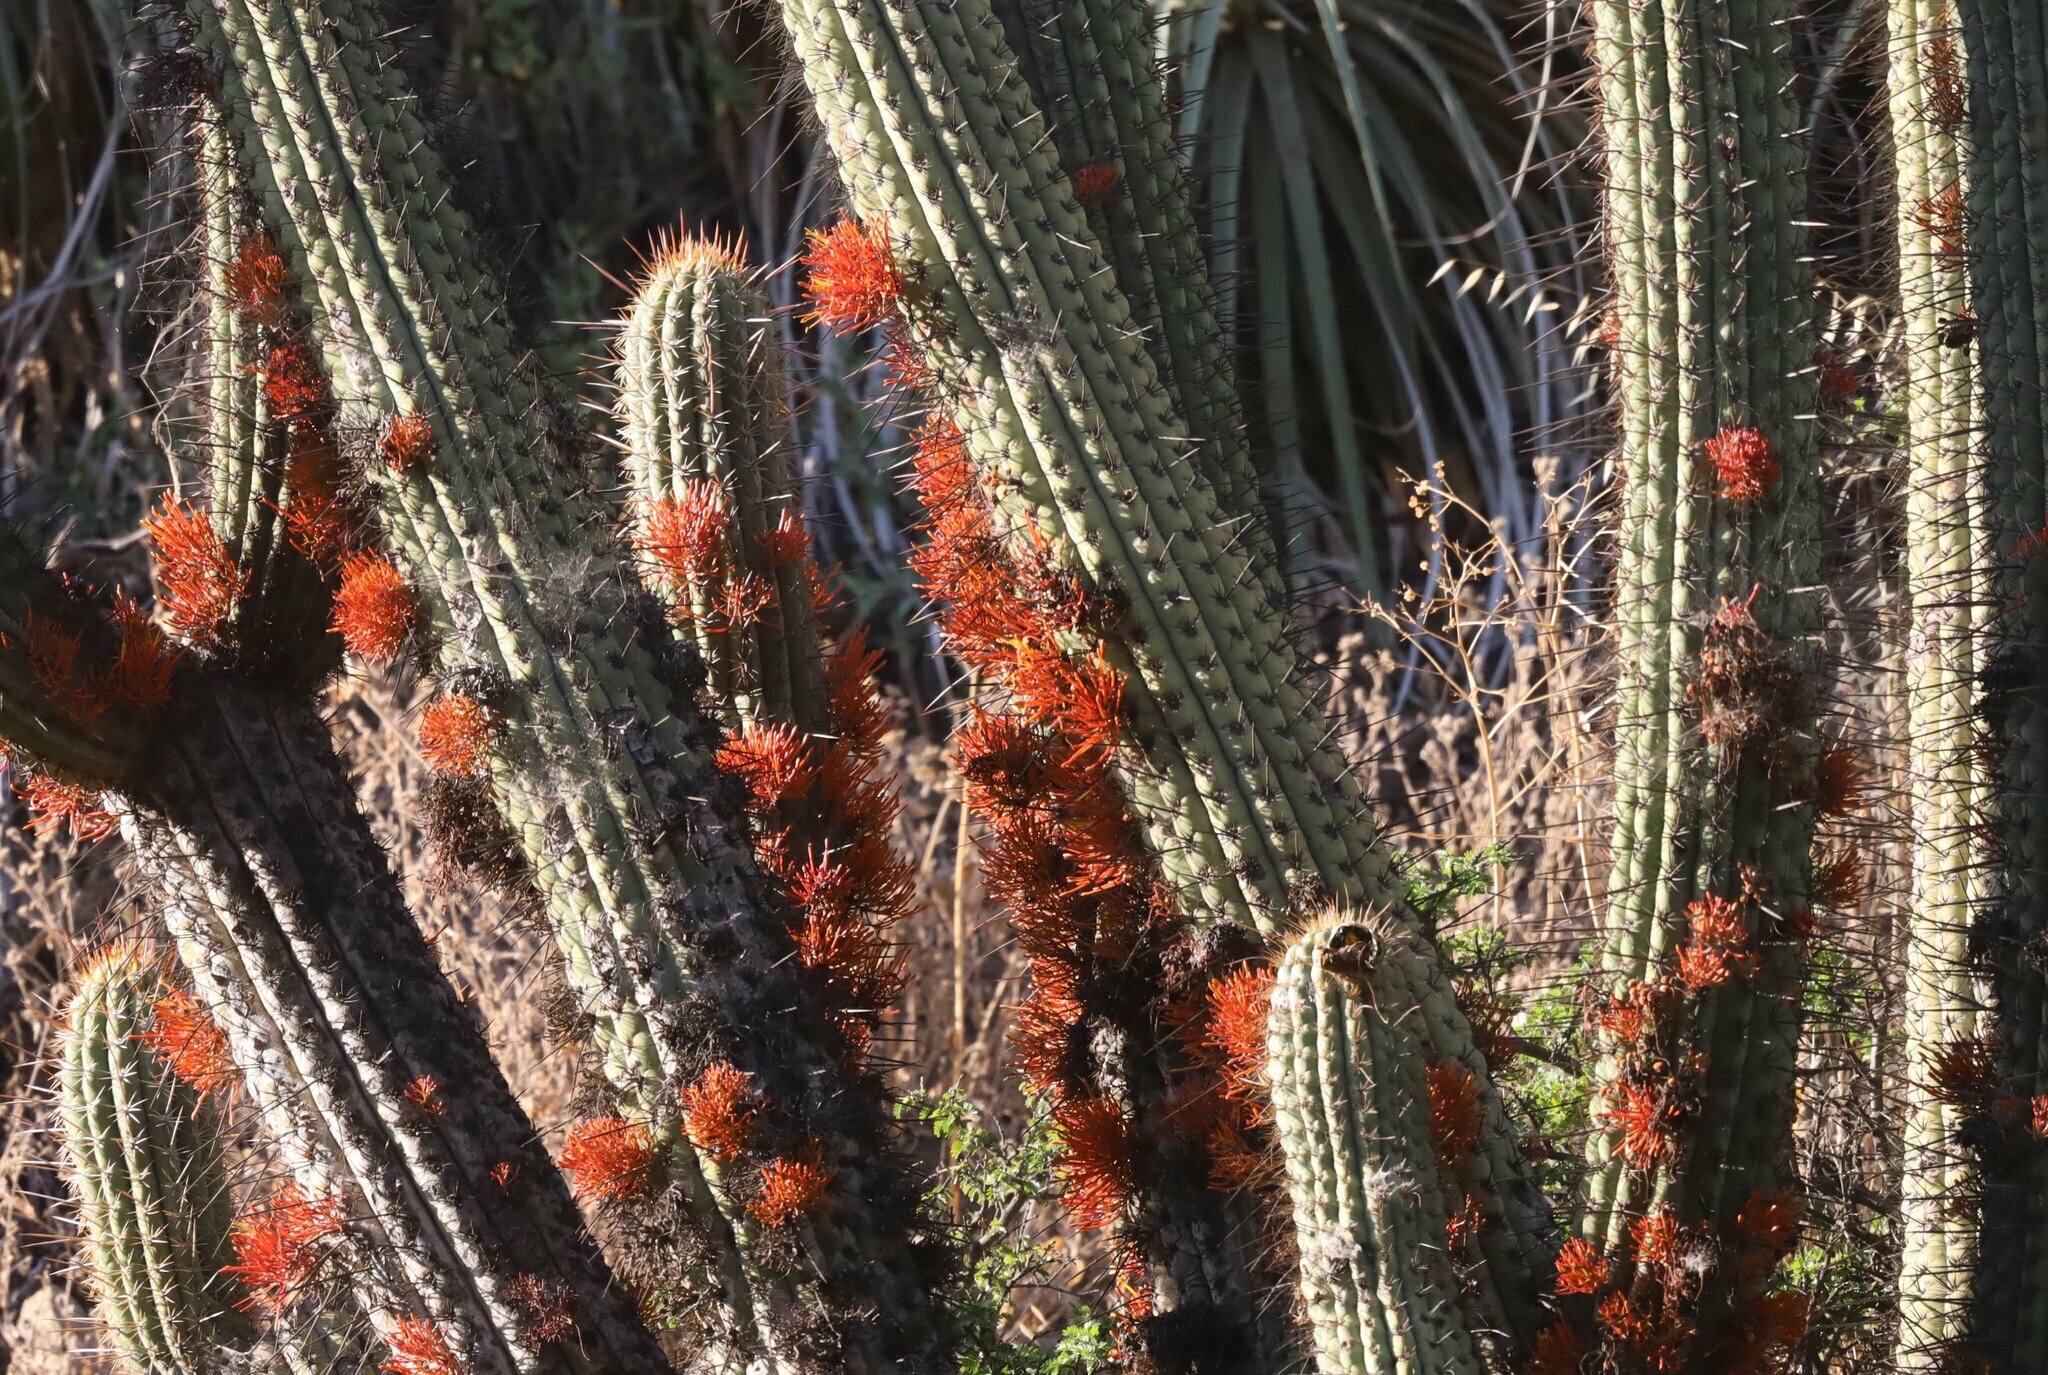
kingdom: Plantae
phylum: Tracheophyta
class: Magnoliopsida
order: Santalales
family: Loranthaceae
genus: Tristerix
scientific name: Tristerix aphyllus
